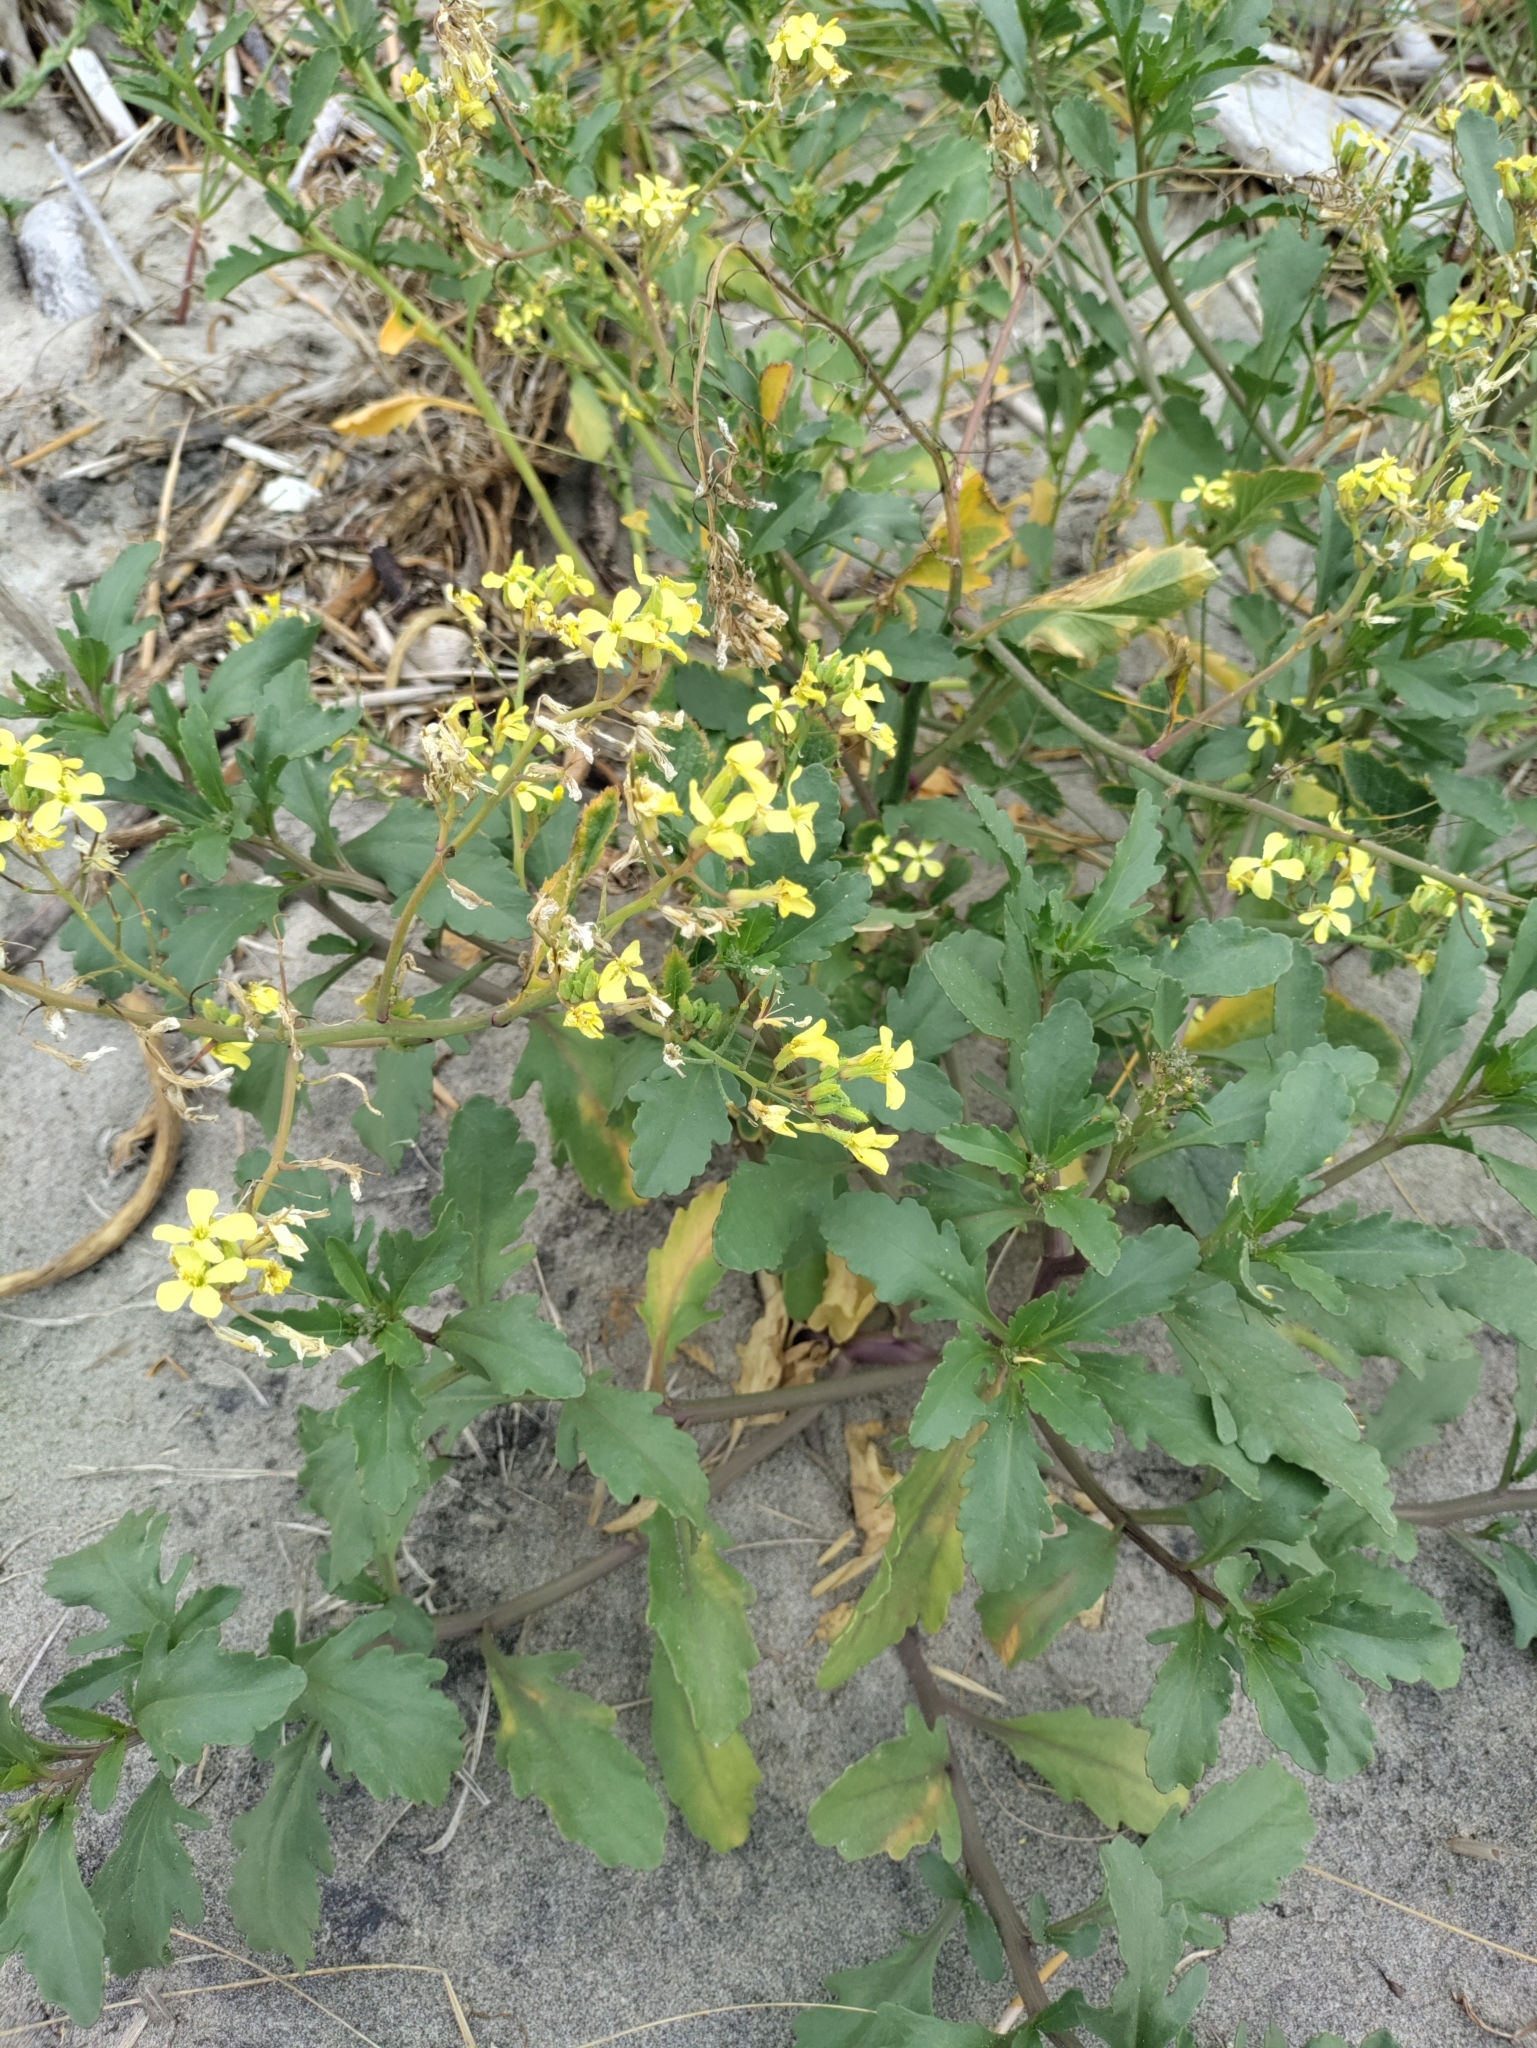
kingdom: Plantae
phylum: Tracheophyta
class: Magnoliopsida
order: Brassicales
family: Brassicaceae
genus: Cakile
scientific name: Cakile edentula
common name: American sea rocket
